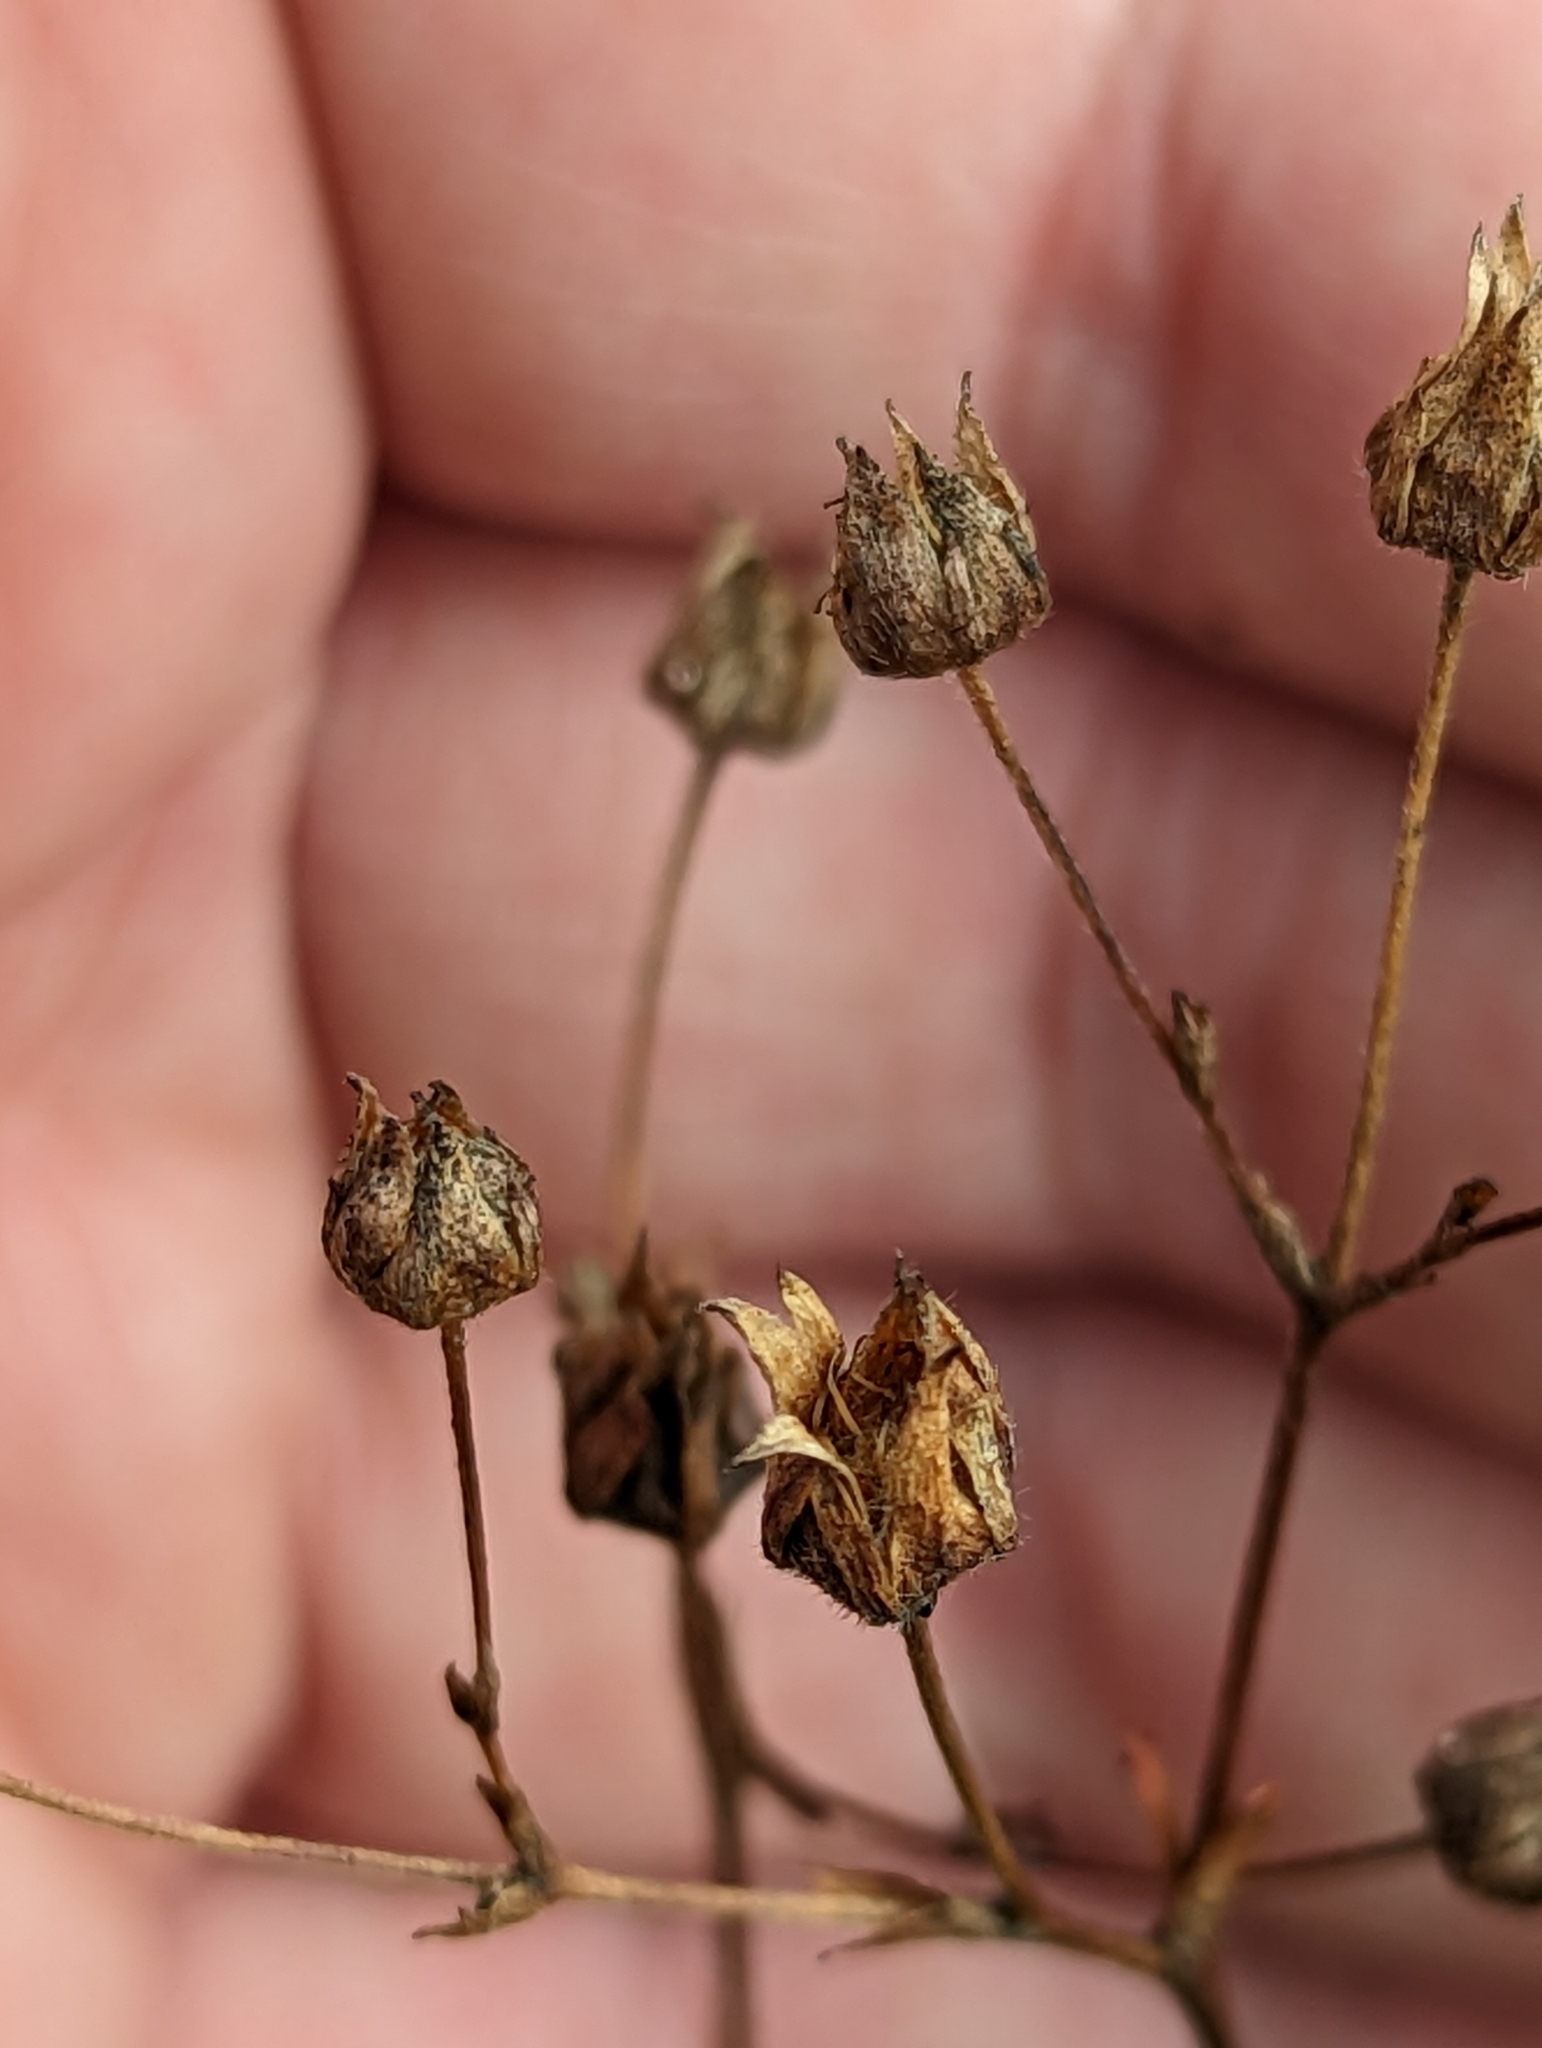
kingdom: Plantae
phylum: Tracheophyta
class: Magnoliopsida
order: Rosales
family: Rosaceae
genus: Sibbaldia
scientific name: Sibbaldia tridentata
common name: Three-toothed cinquefoil
